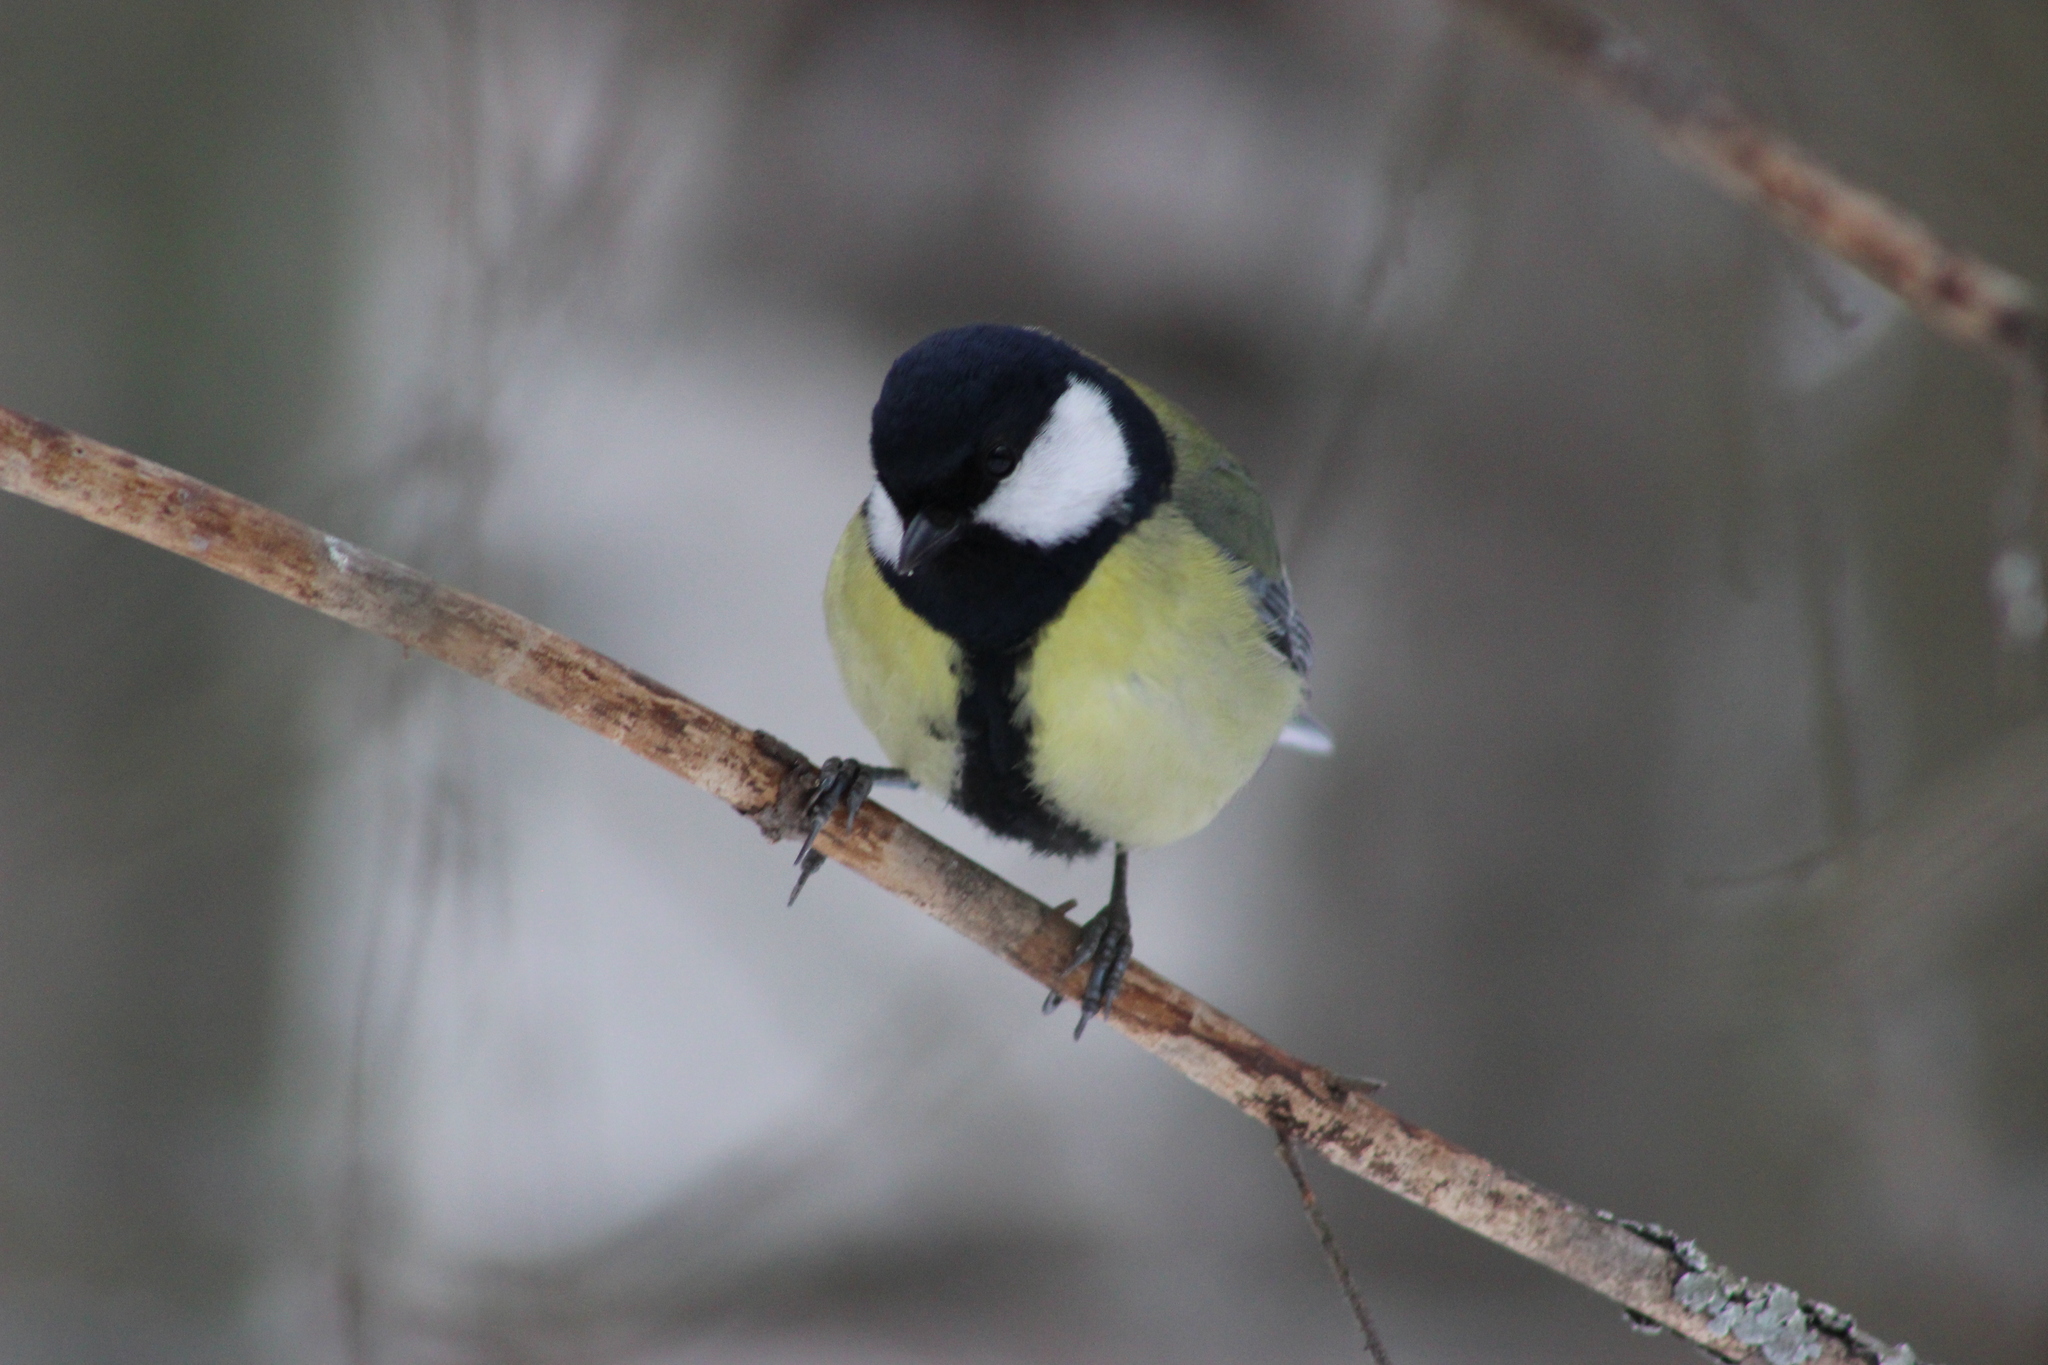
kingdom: Animalia
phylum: Chordata
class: Aves
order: Passeriformes
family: Paridae
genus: Parus
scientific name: Parus major
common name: Great tit
